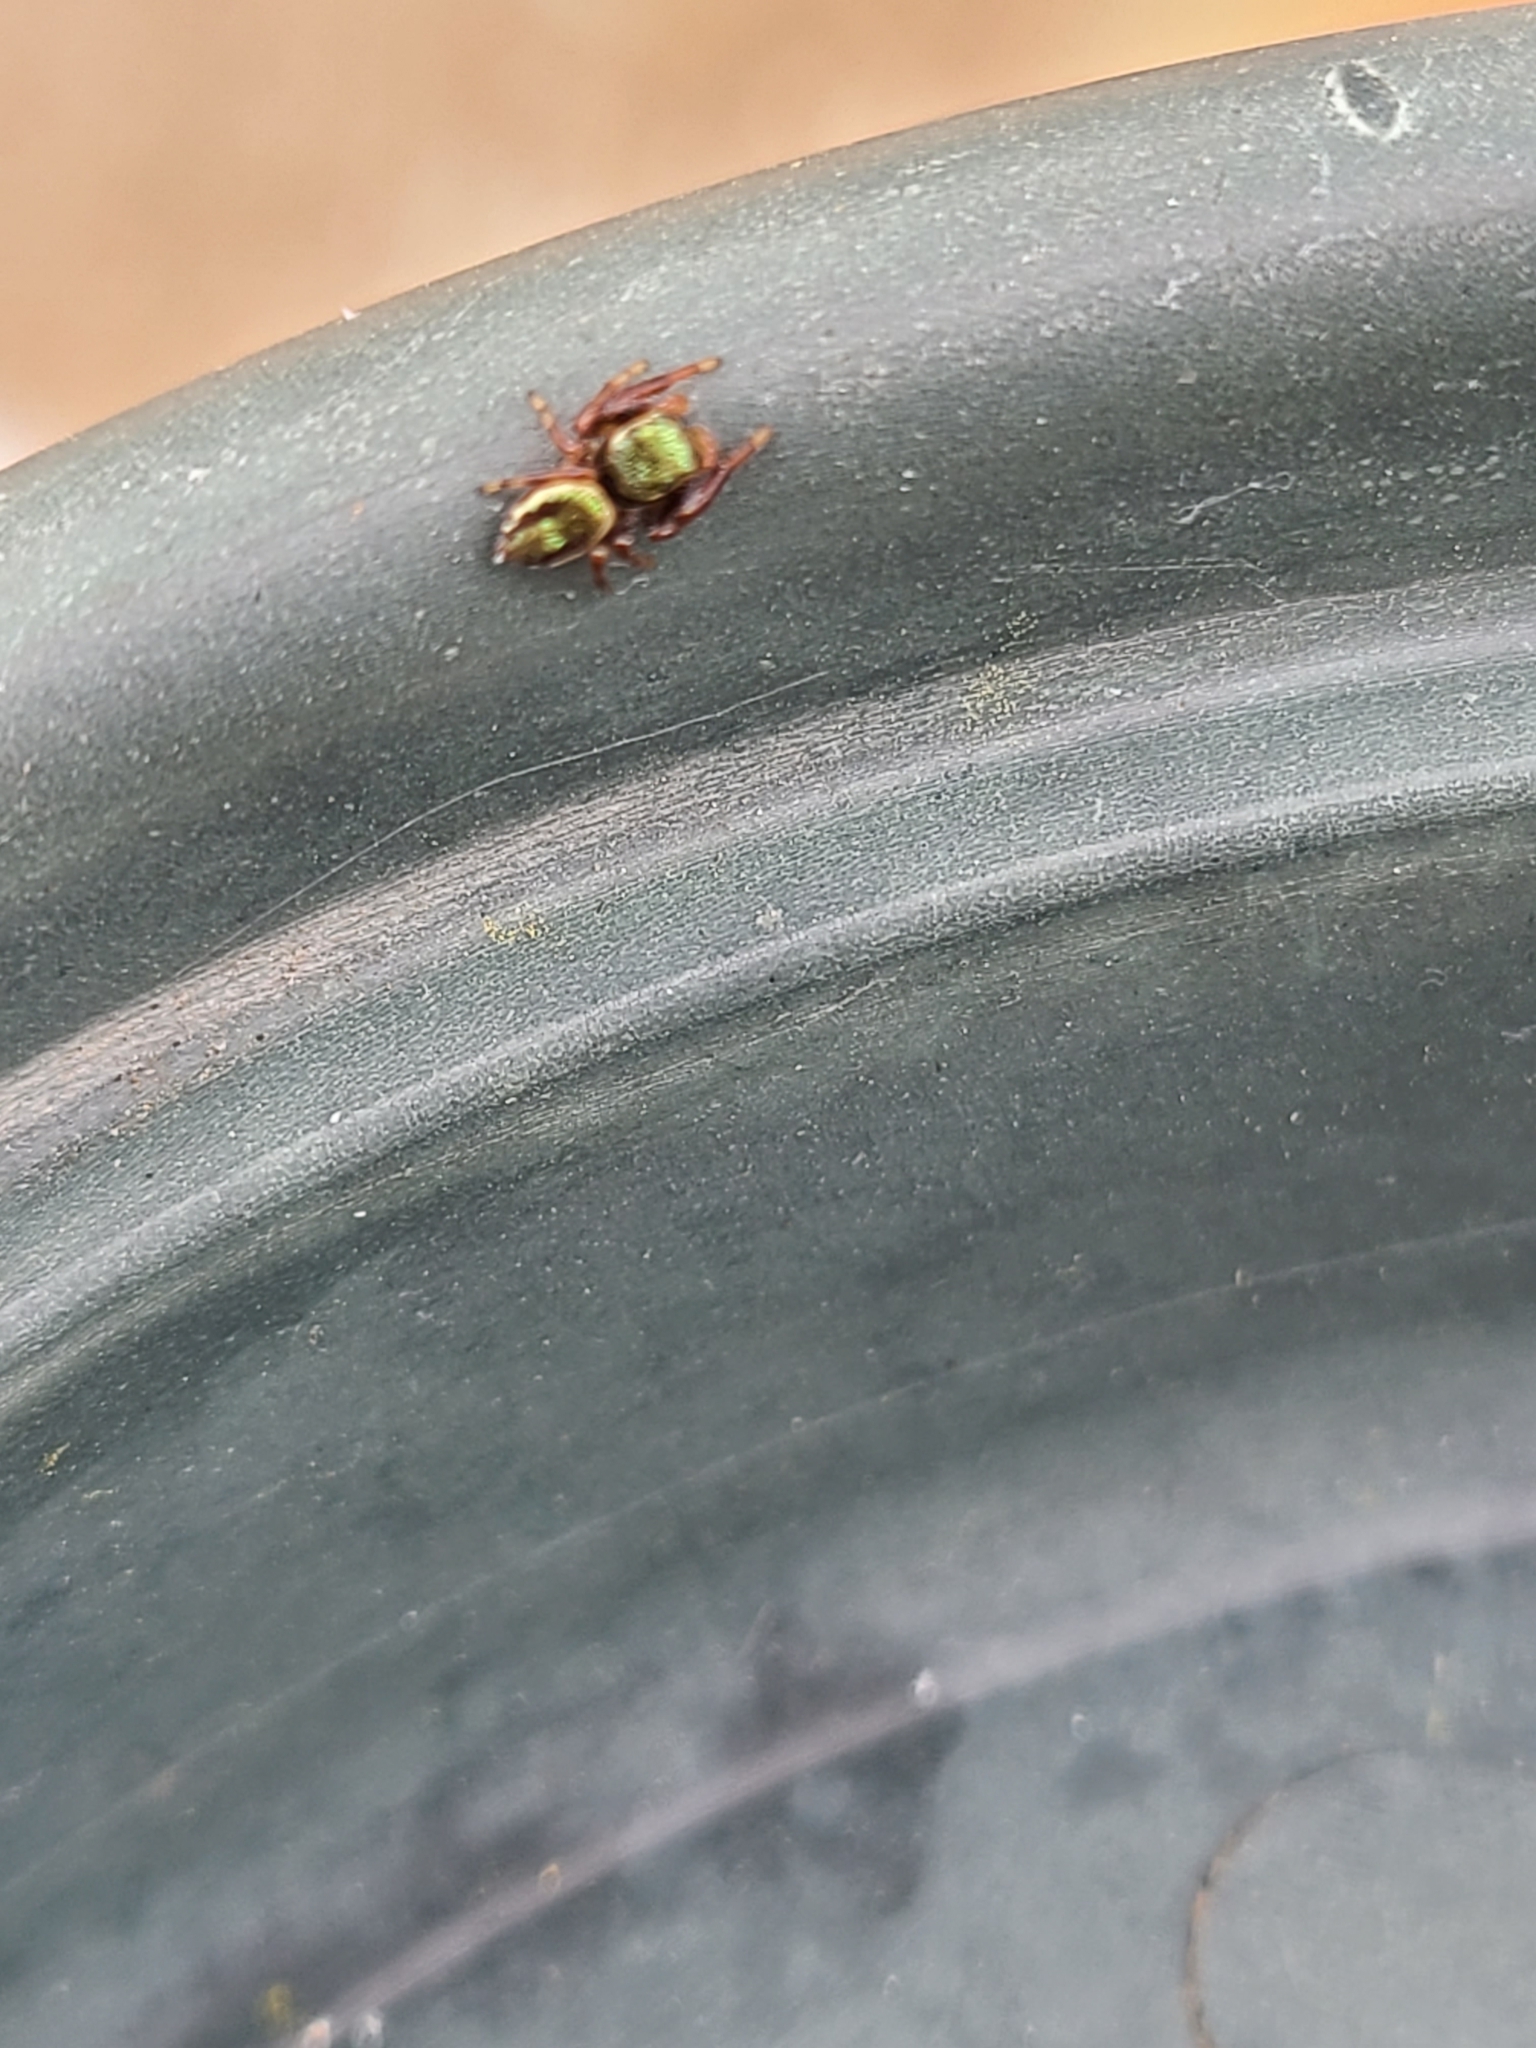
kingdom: Animalia
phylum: Arthropoda
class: Arachnida
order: Araneae
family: Salticidae
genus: Messua
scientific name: Messua limbata
